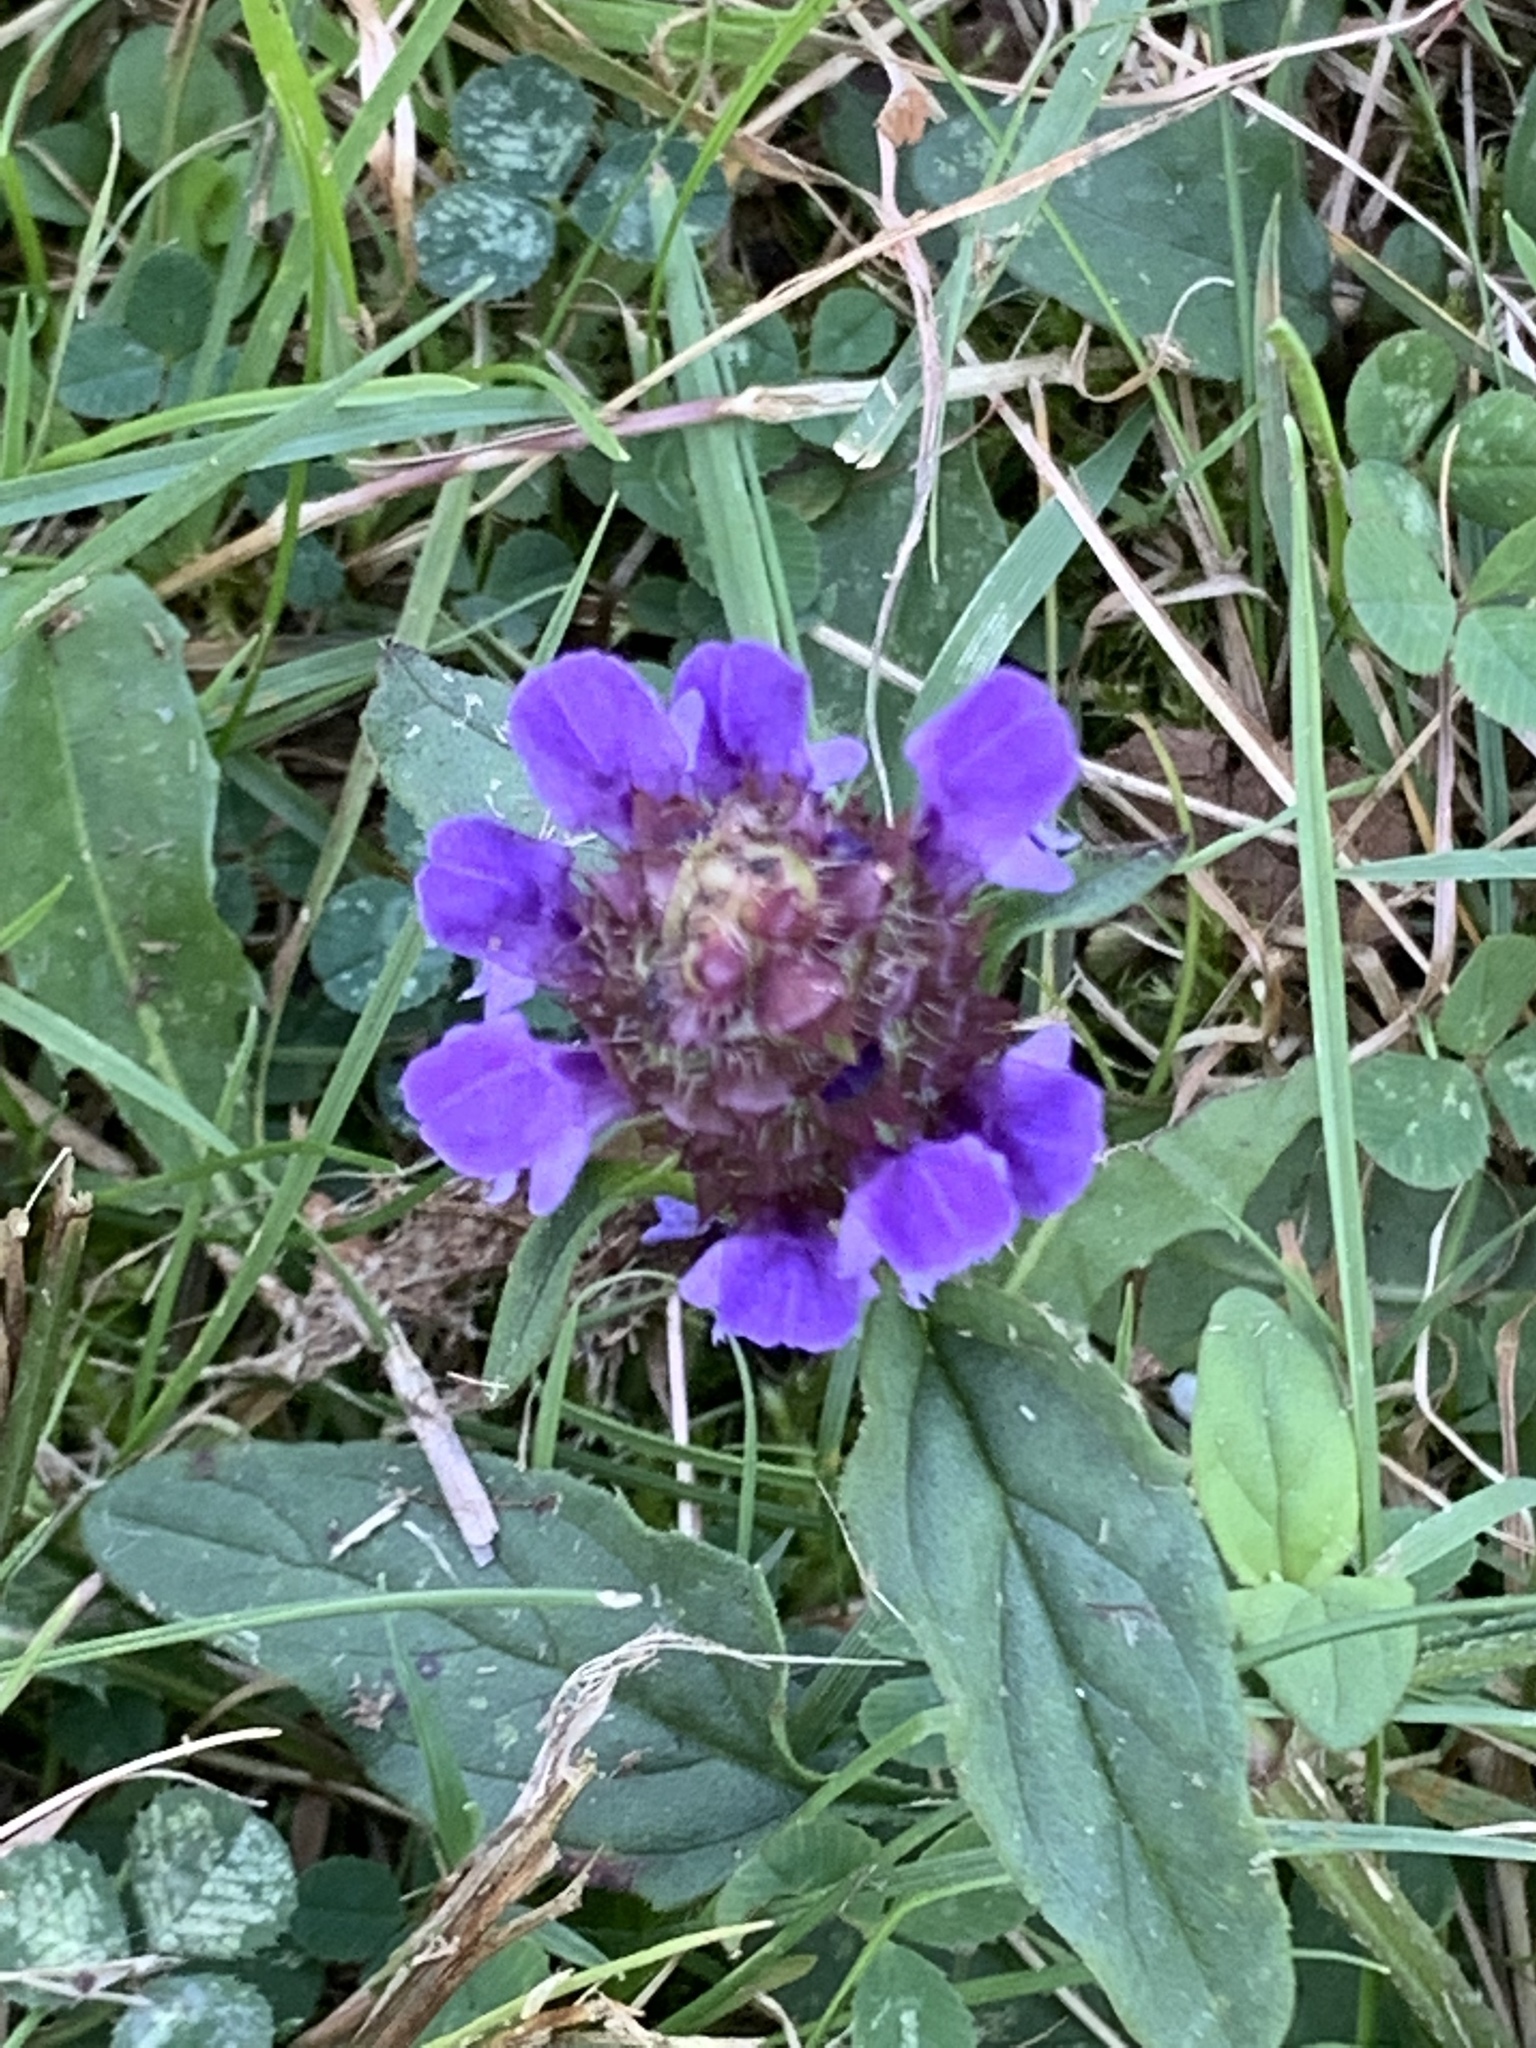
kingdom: Plantae
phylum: Tracheophyta
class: Magnoliopsida
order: Lamiales
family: Lamiaceae
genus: Prunella
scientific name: Prunella vulgaris
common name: Heal-all
